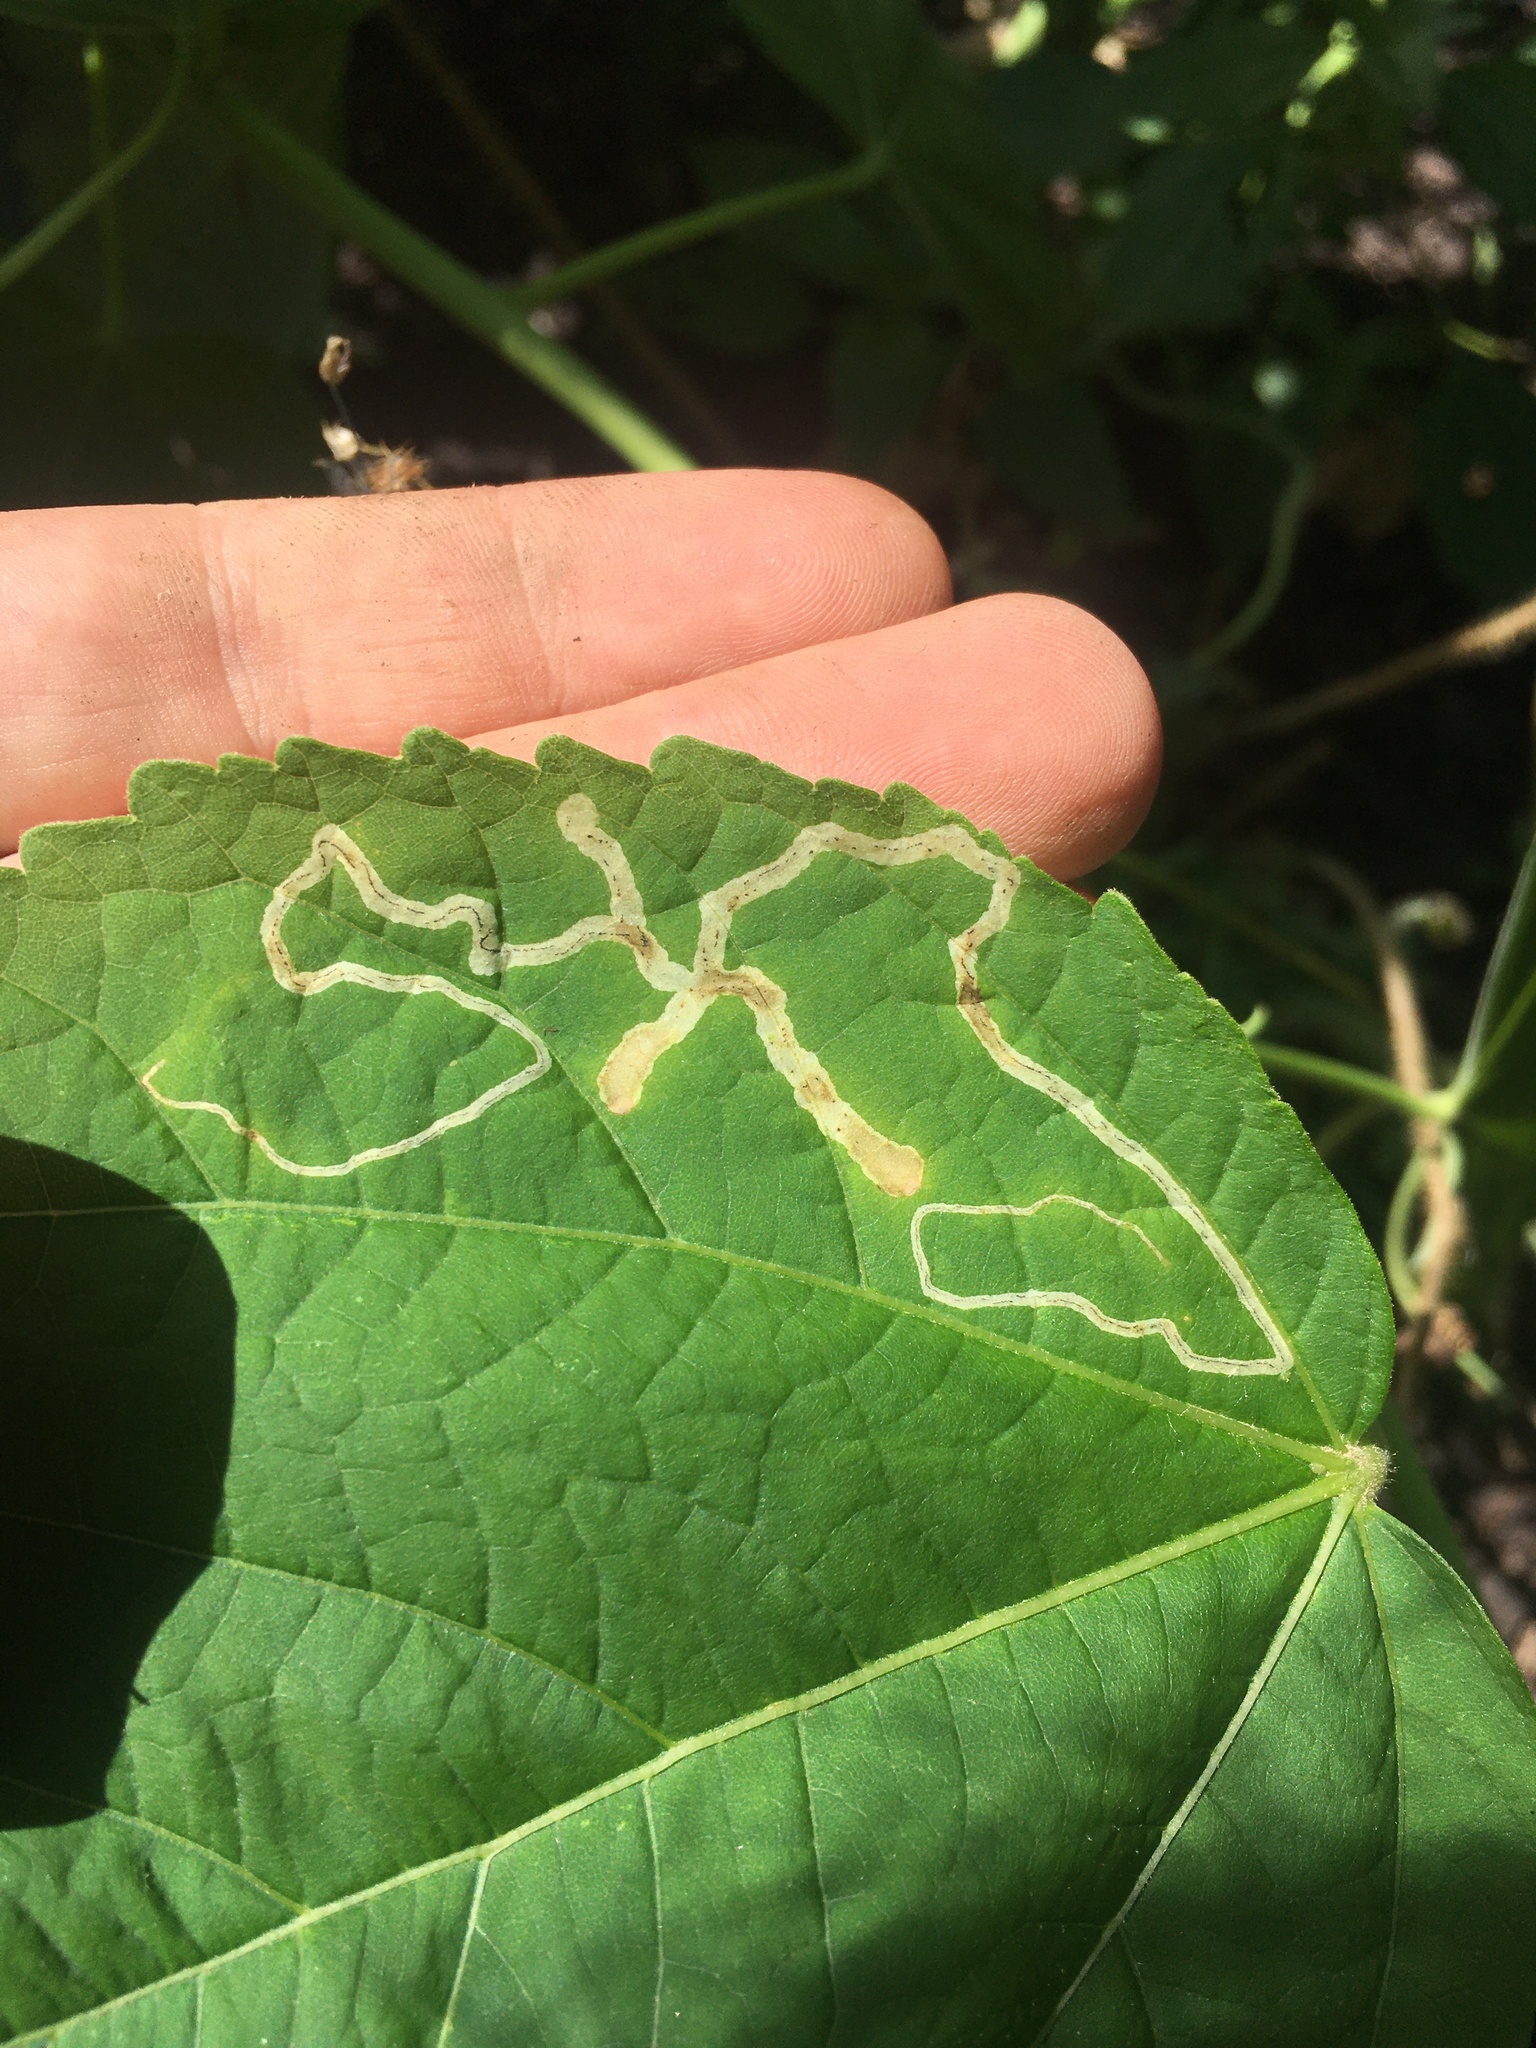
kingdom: Animalia
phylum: Arthropoda
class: Insecta
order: Diptera
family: Agromyzidae
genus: Calycomyza
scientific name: Calycomyza malvae
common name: Mallow leaf miner
